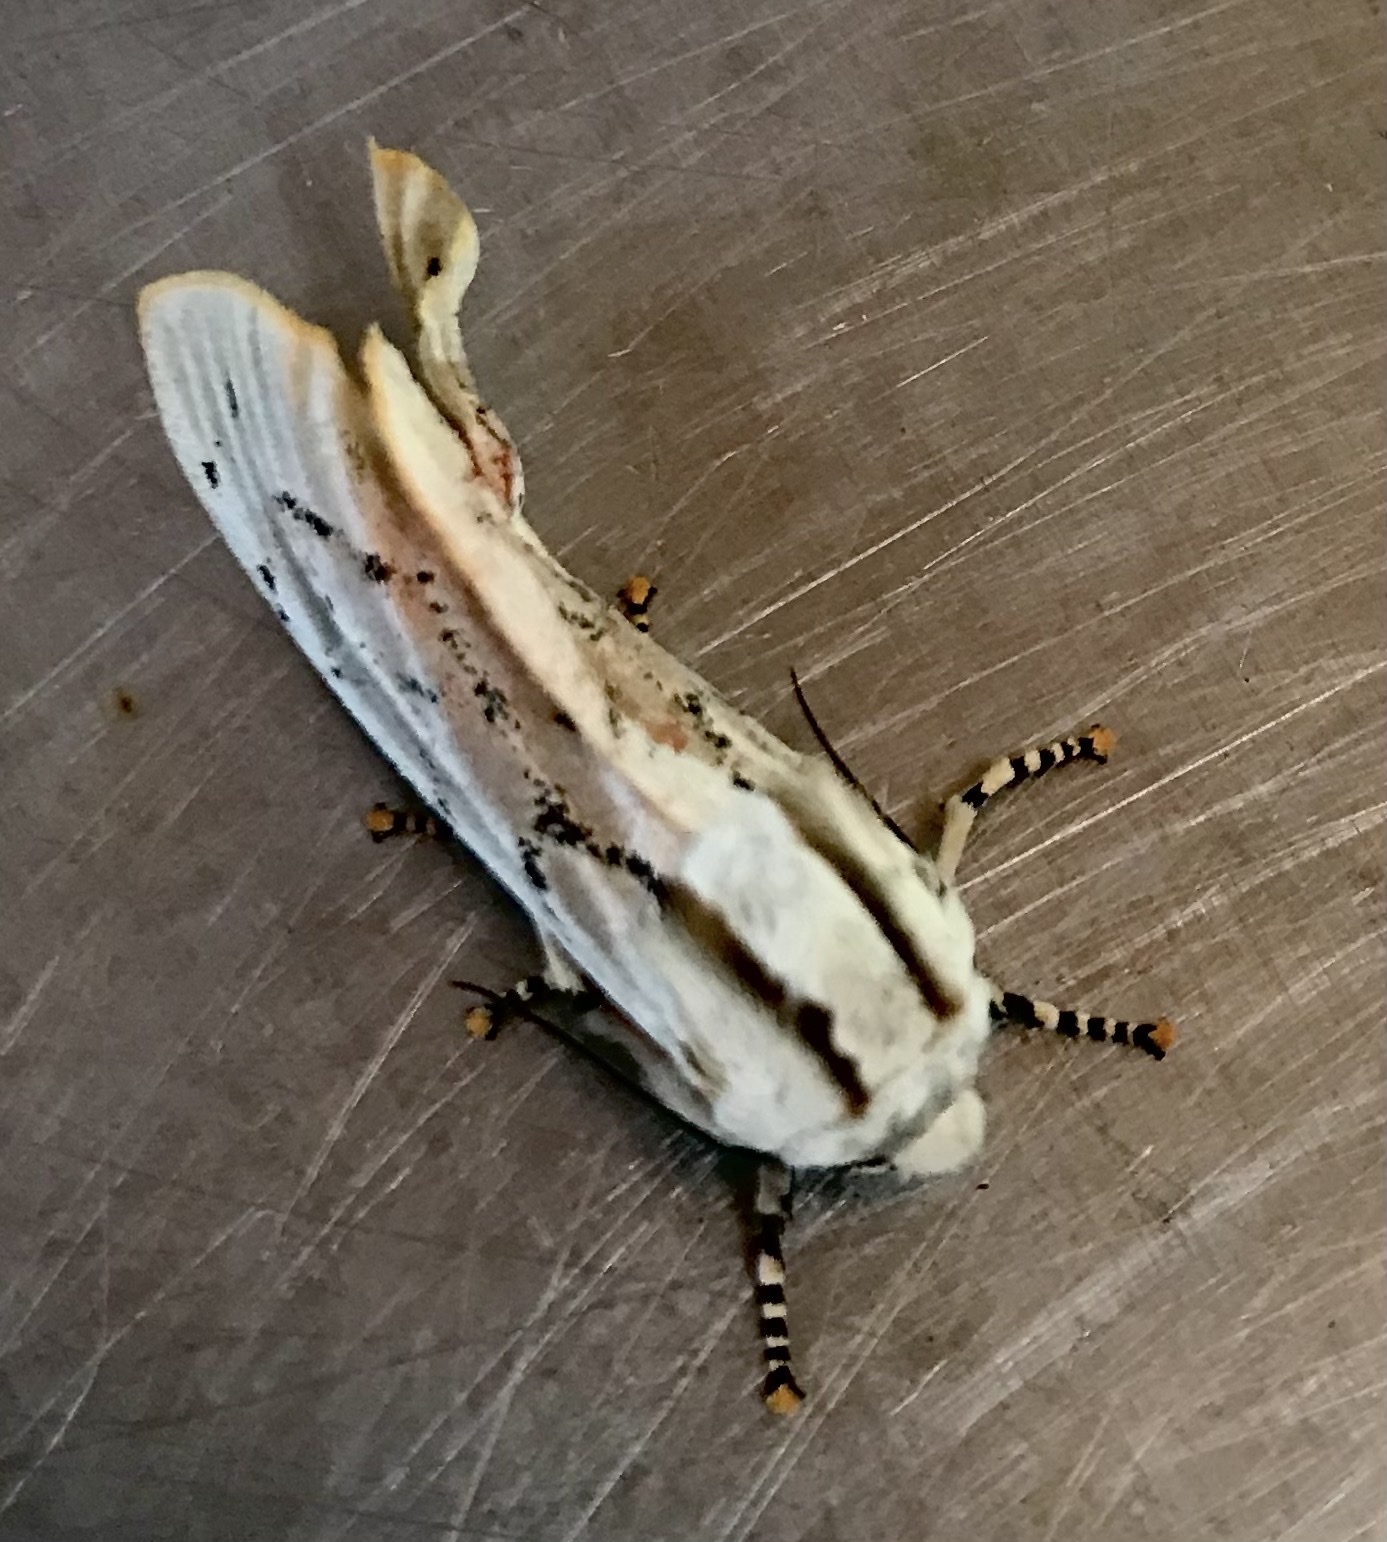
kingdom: Animalia
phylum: Arthropoda
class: Insecta
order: Lepidoptera
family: Erebidae
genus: Rhodogastria
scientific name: Rhodogastria amasis
